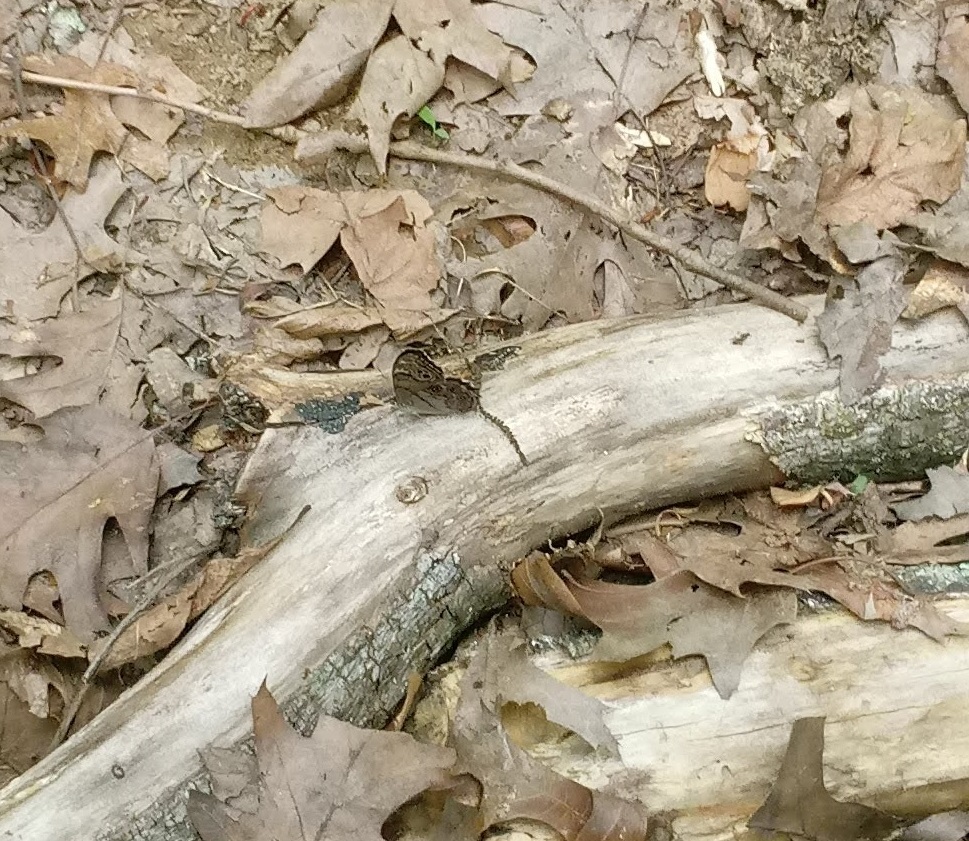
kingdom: Animalia
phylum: Arthropoda
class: Insecta
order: Lepidoptera
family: Nymphalidae
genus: Lethe
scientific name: Lethe anthedon
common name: Northern pearly-eye
